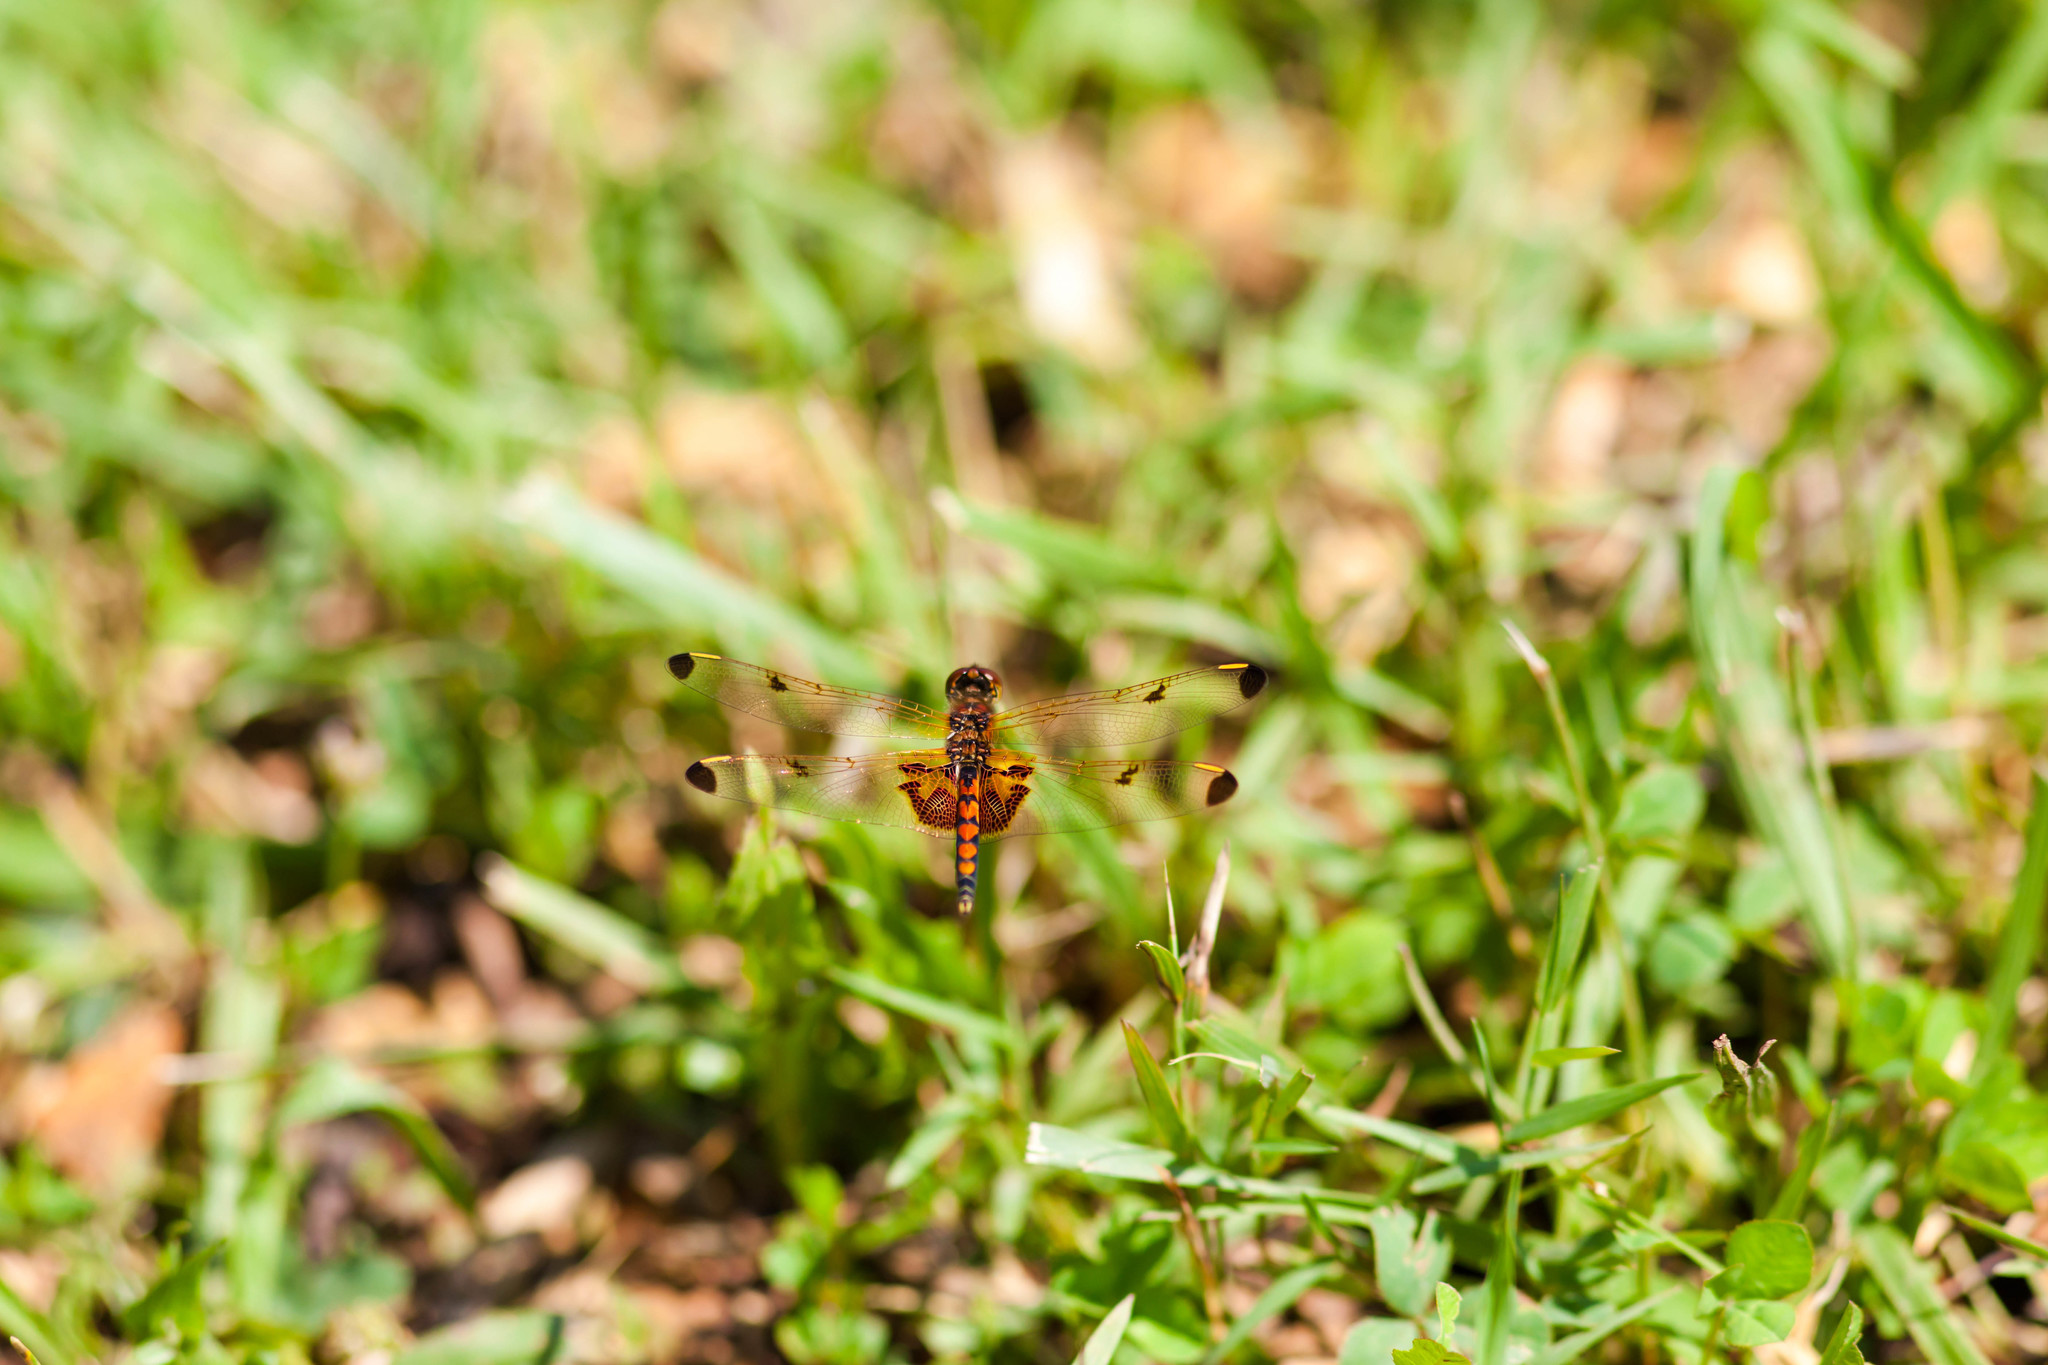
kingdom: Animalia
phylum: Arthropoda
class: Insecta
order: Odonata
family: Libellulidae
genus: Celithemis
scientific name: Celithemis elisa
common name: Calico pennant
